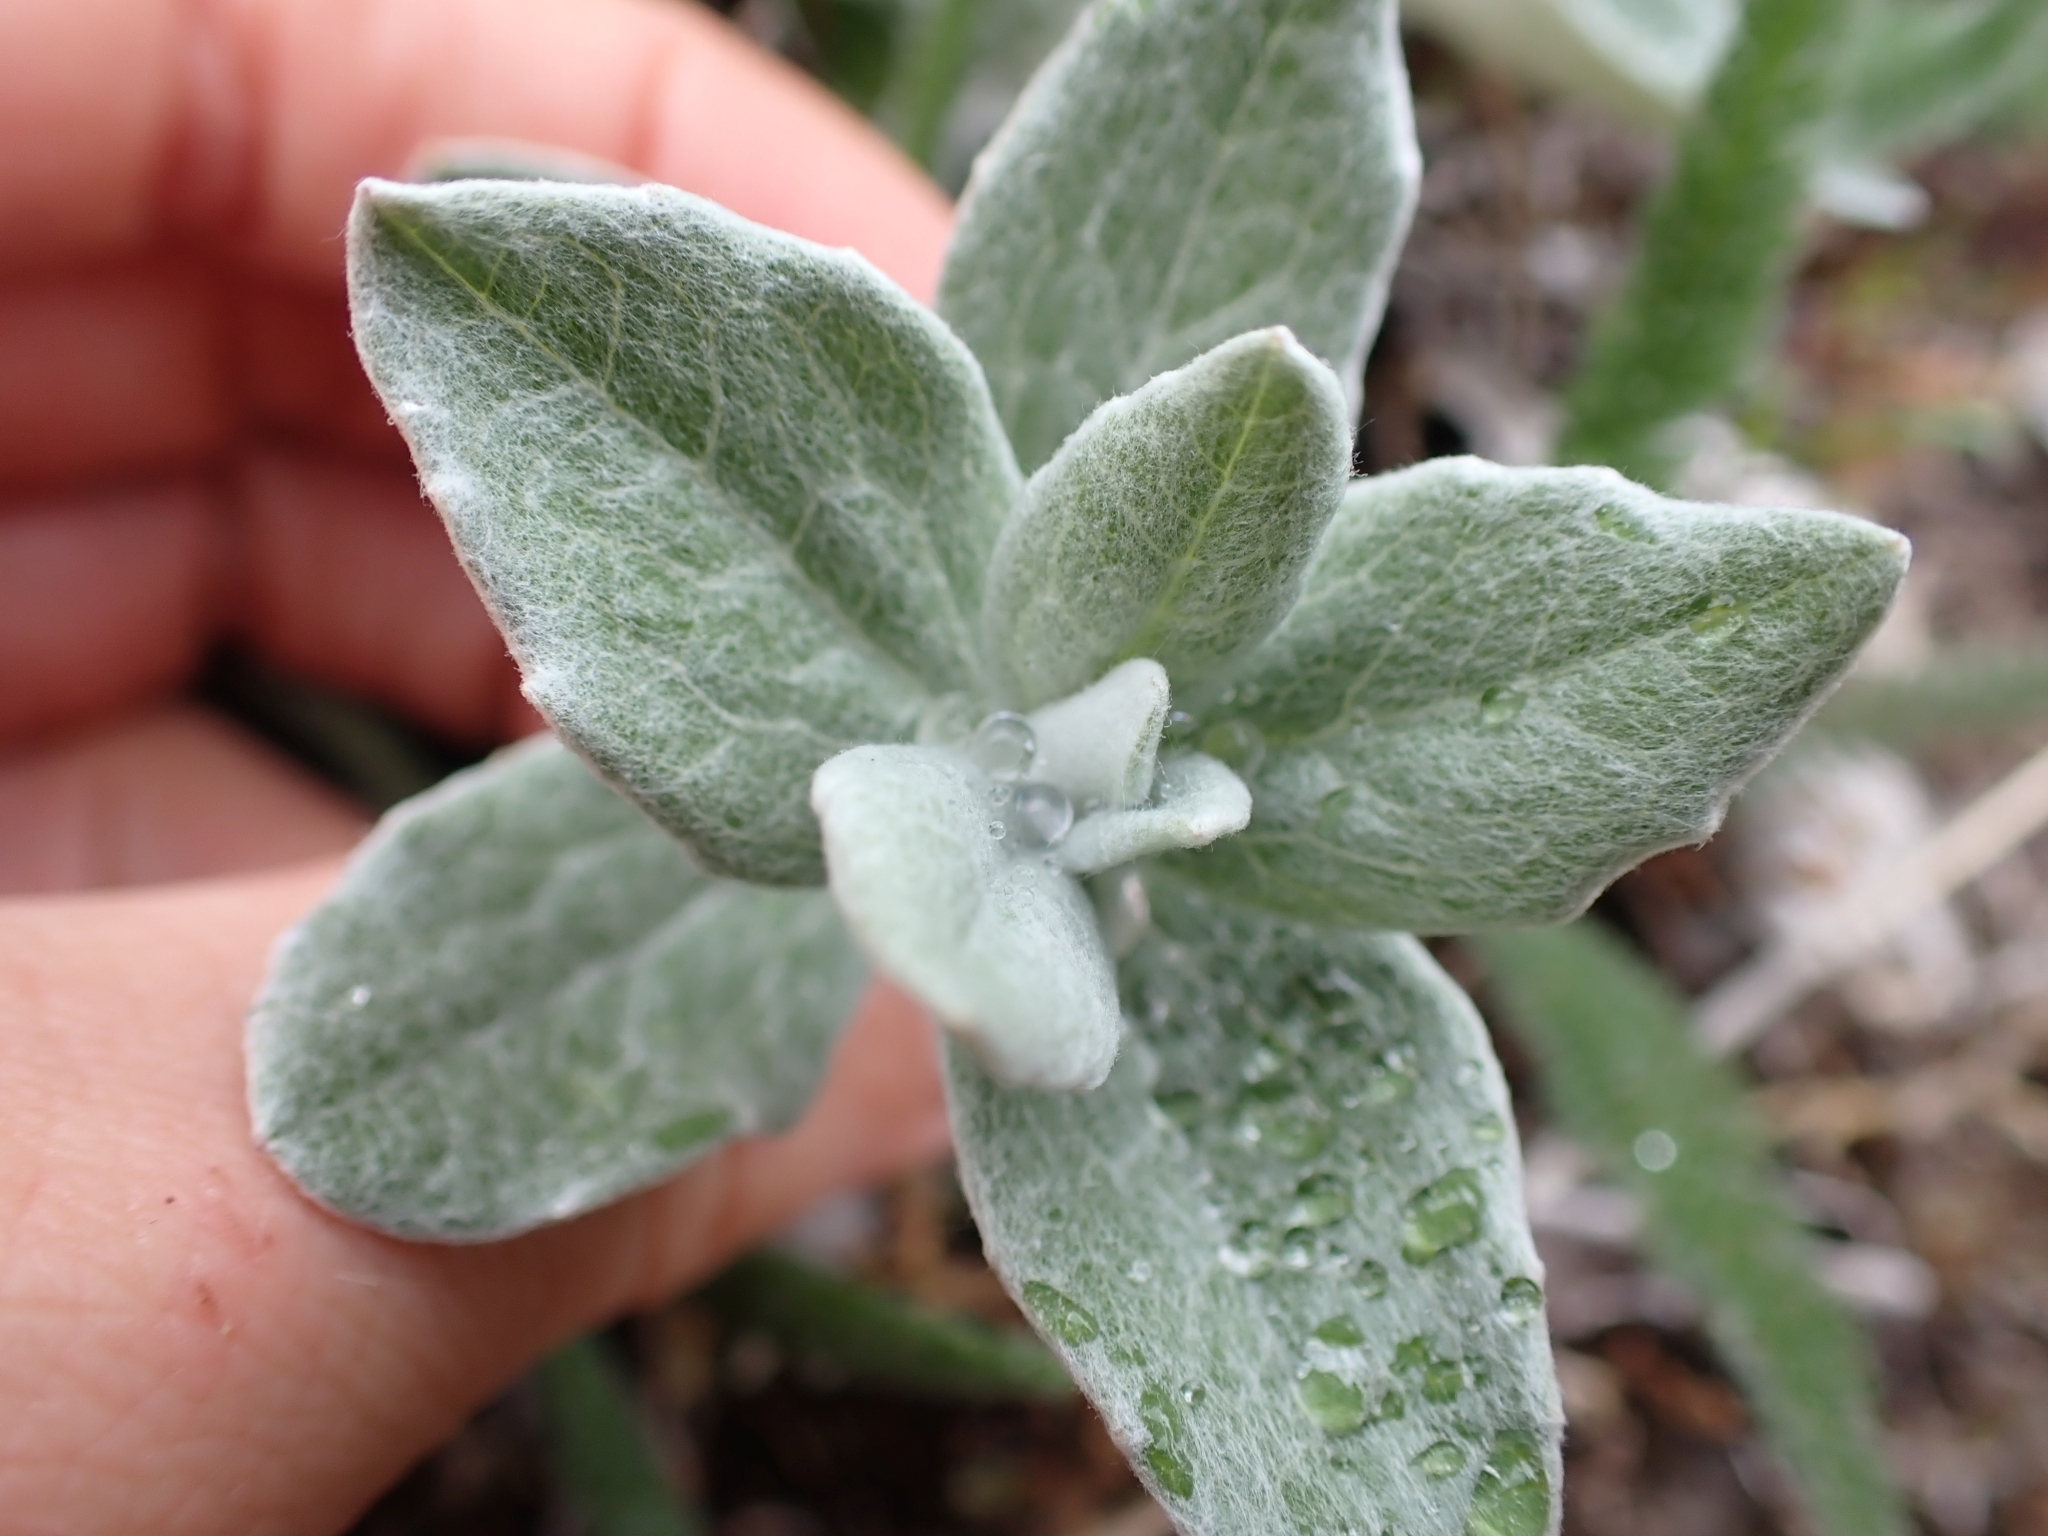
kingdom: Plantae
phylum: Tracheophyta
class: Magnoliopsida
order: Asterales
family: Asteraceae
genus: Luina
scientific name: Luina hypoleuca
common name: Little-leaved luina
